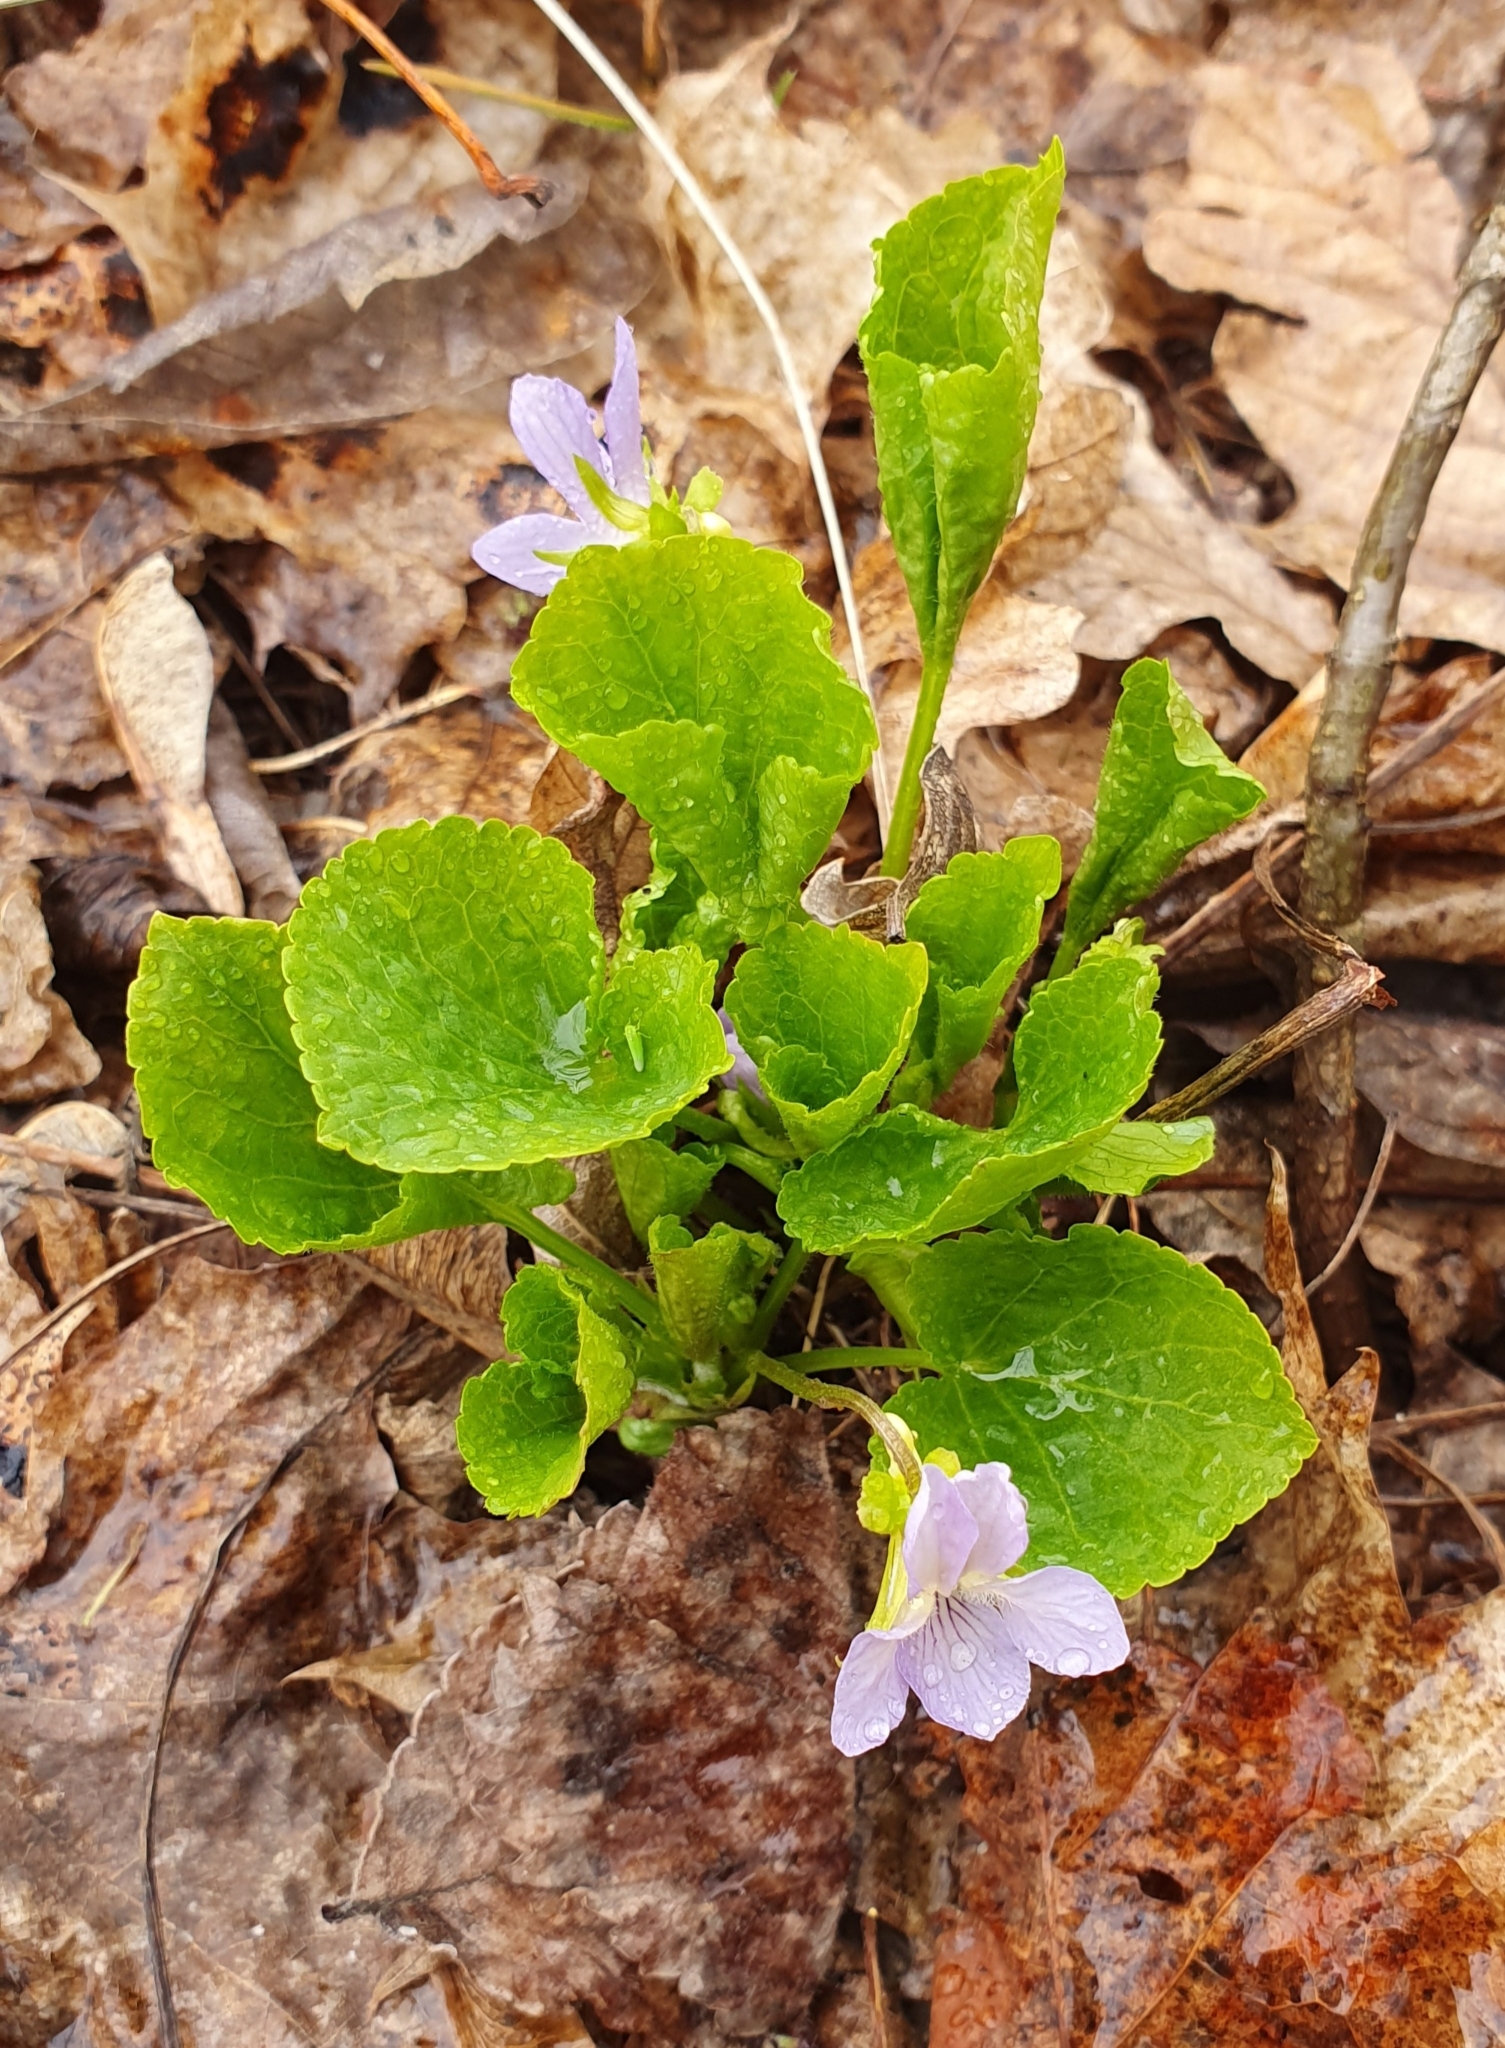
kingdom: Plantae
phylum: Tracheophyta
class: Magnoliopsida
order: Malpighiales
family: Violaceae
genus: Viola
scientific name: Viola mirabilis
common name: Wonder violet
